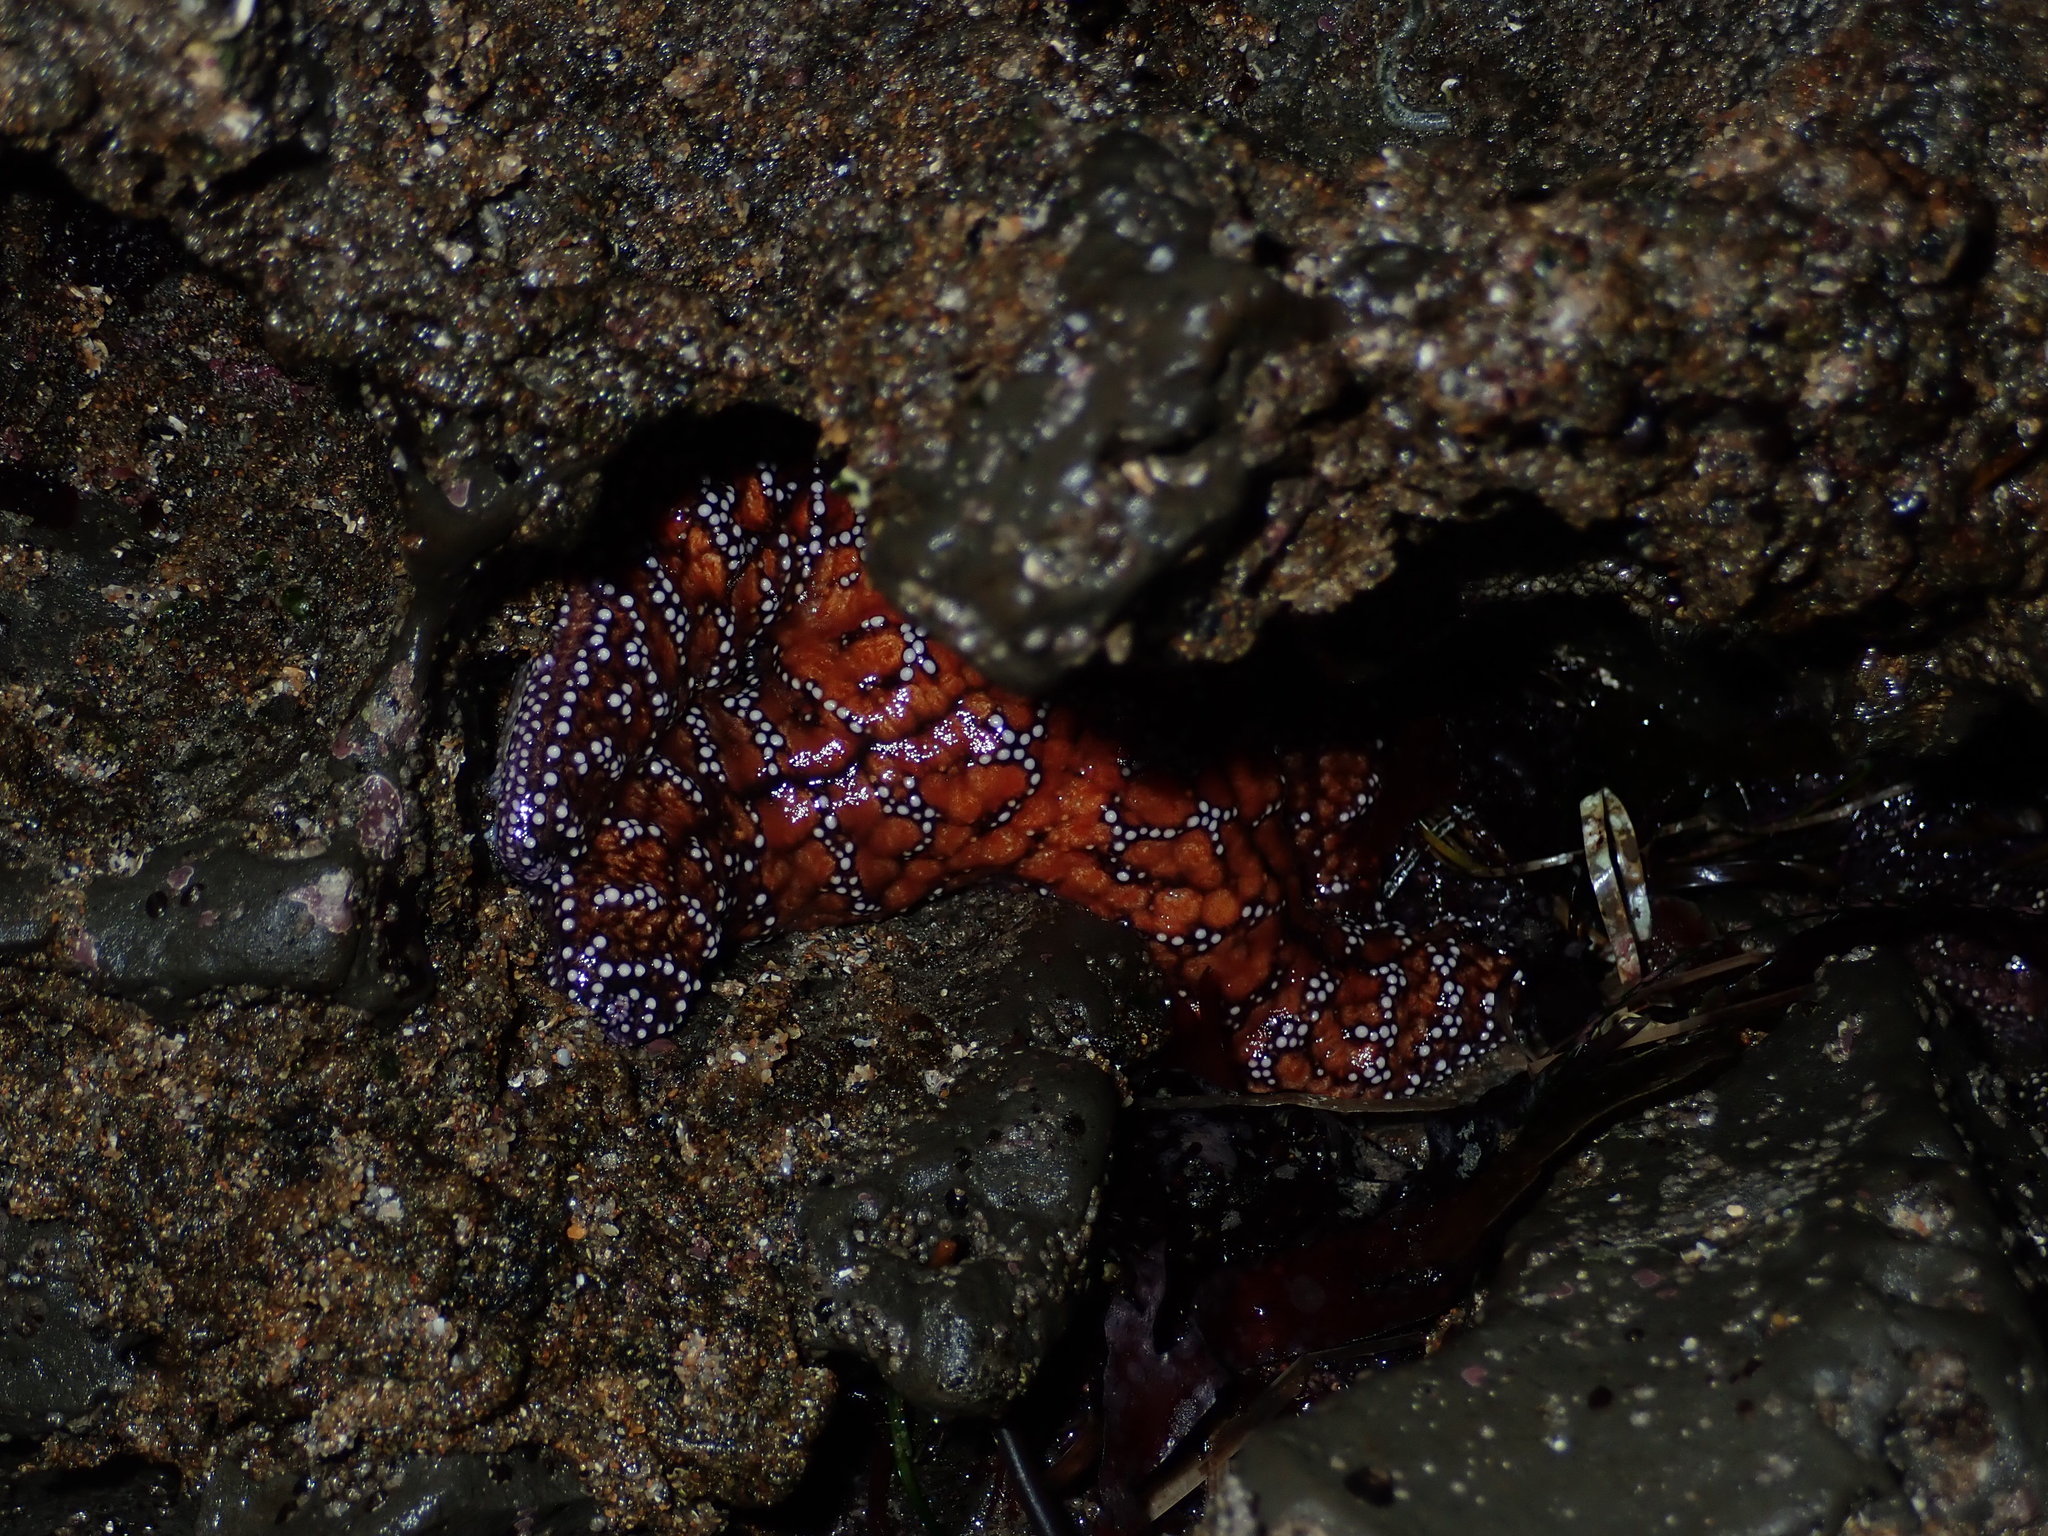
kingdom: Animalia
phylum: Echinodermata
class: Asteroidea
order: Forcipulatida
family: Asteriidae
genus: Pisaster
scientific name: Pisaster ochraceus
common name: Ochre stars
